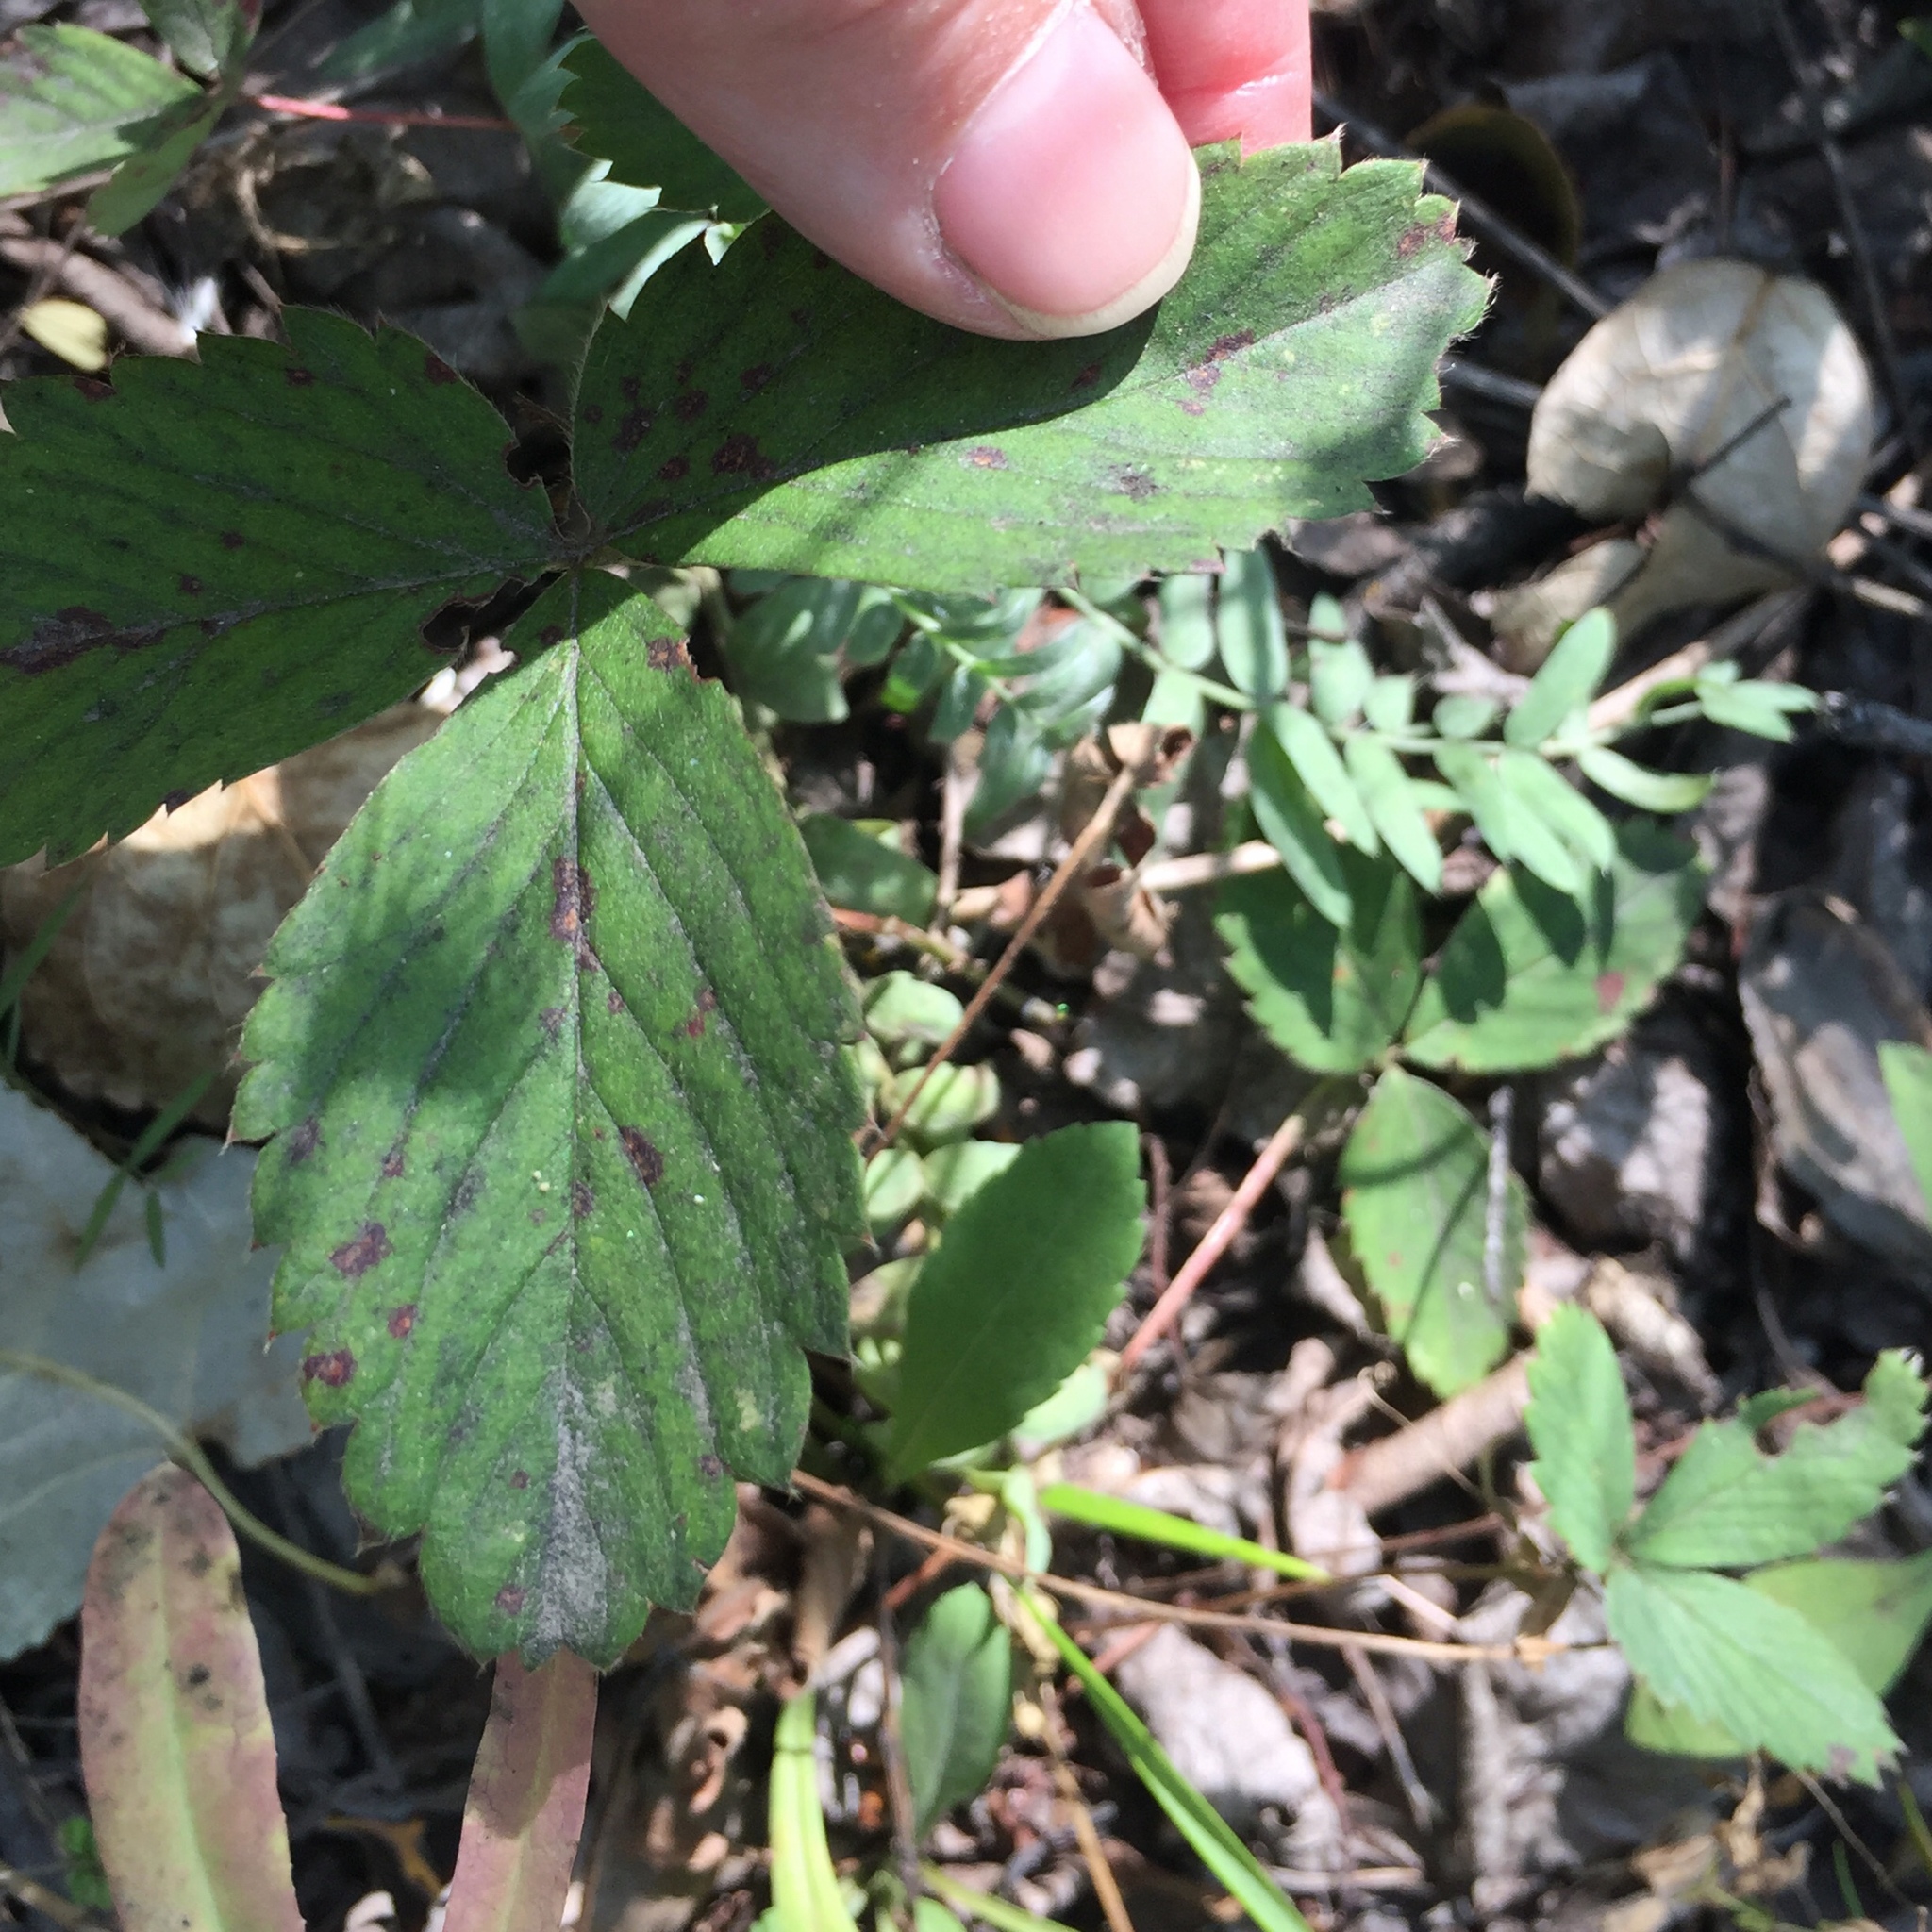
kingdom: Plantae
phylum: Tracheophyta
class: Magnoliopsida
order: Rosales
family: Rosaceae
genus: Fragaria
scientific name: Fragaria virginiana
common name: Thickleaved wild strawberry
